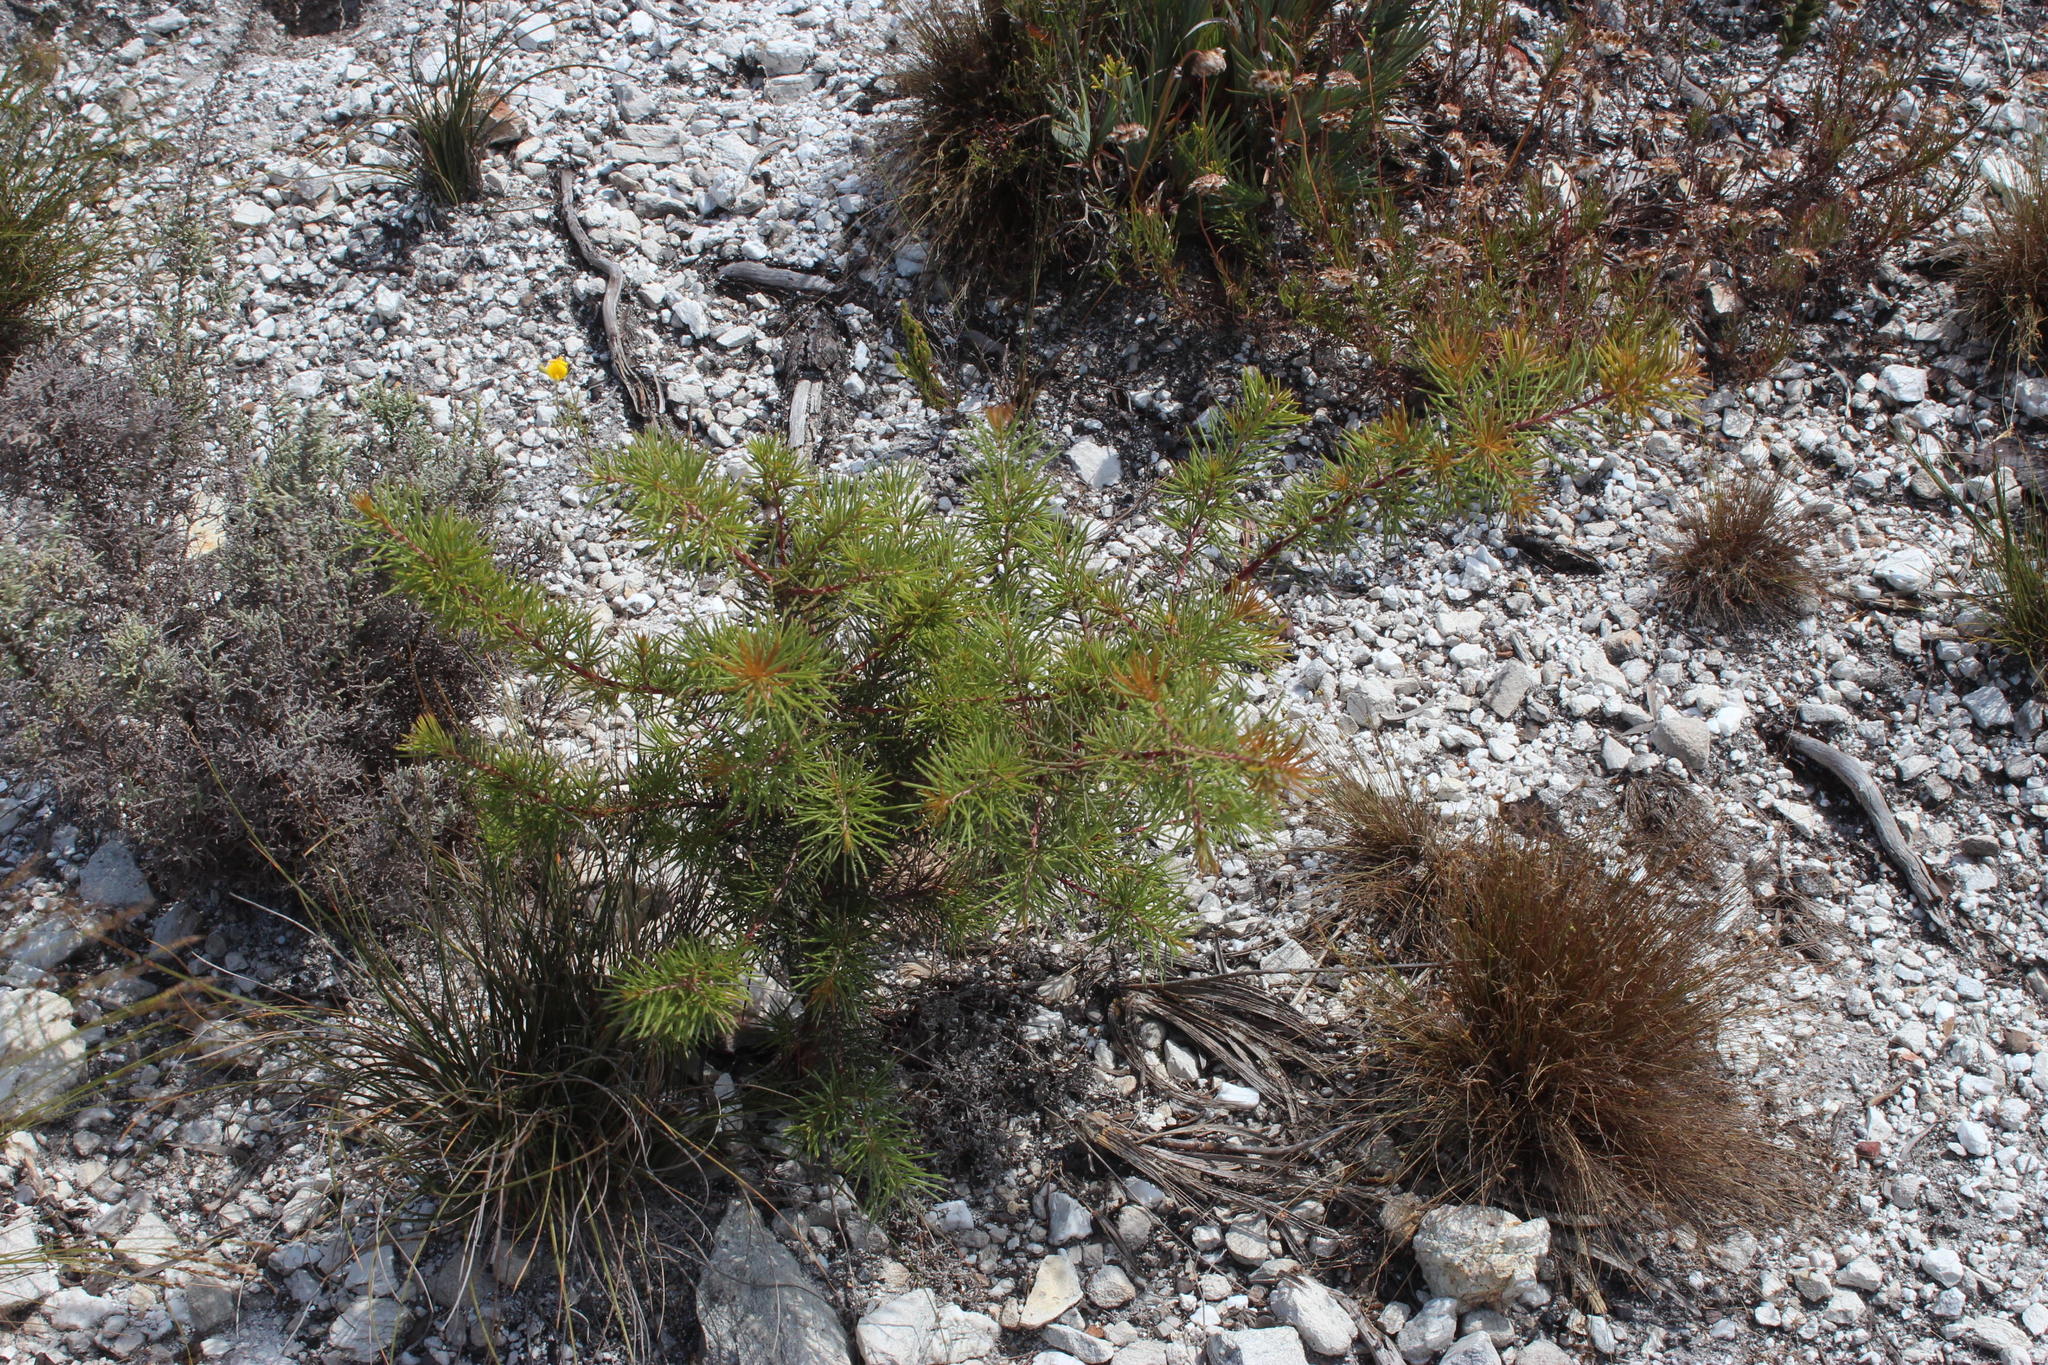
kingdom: Plantae
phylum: Tracheophyta
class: Magnoliopsida
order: Proteales
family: Proteaceae
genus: Hakea
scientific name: Hakea sericea
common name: Needle bush
